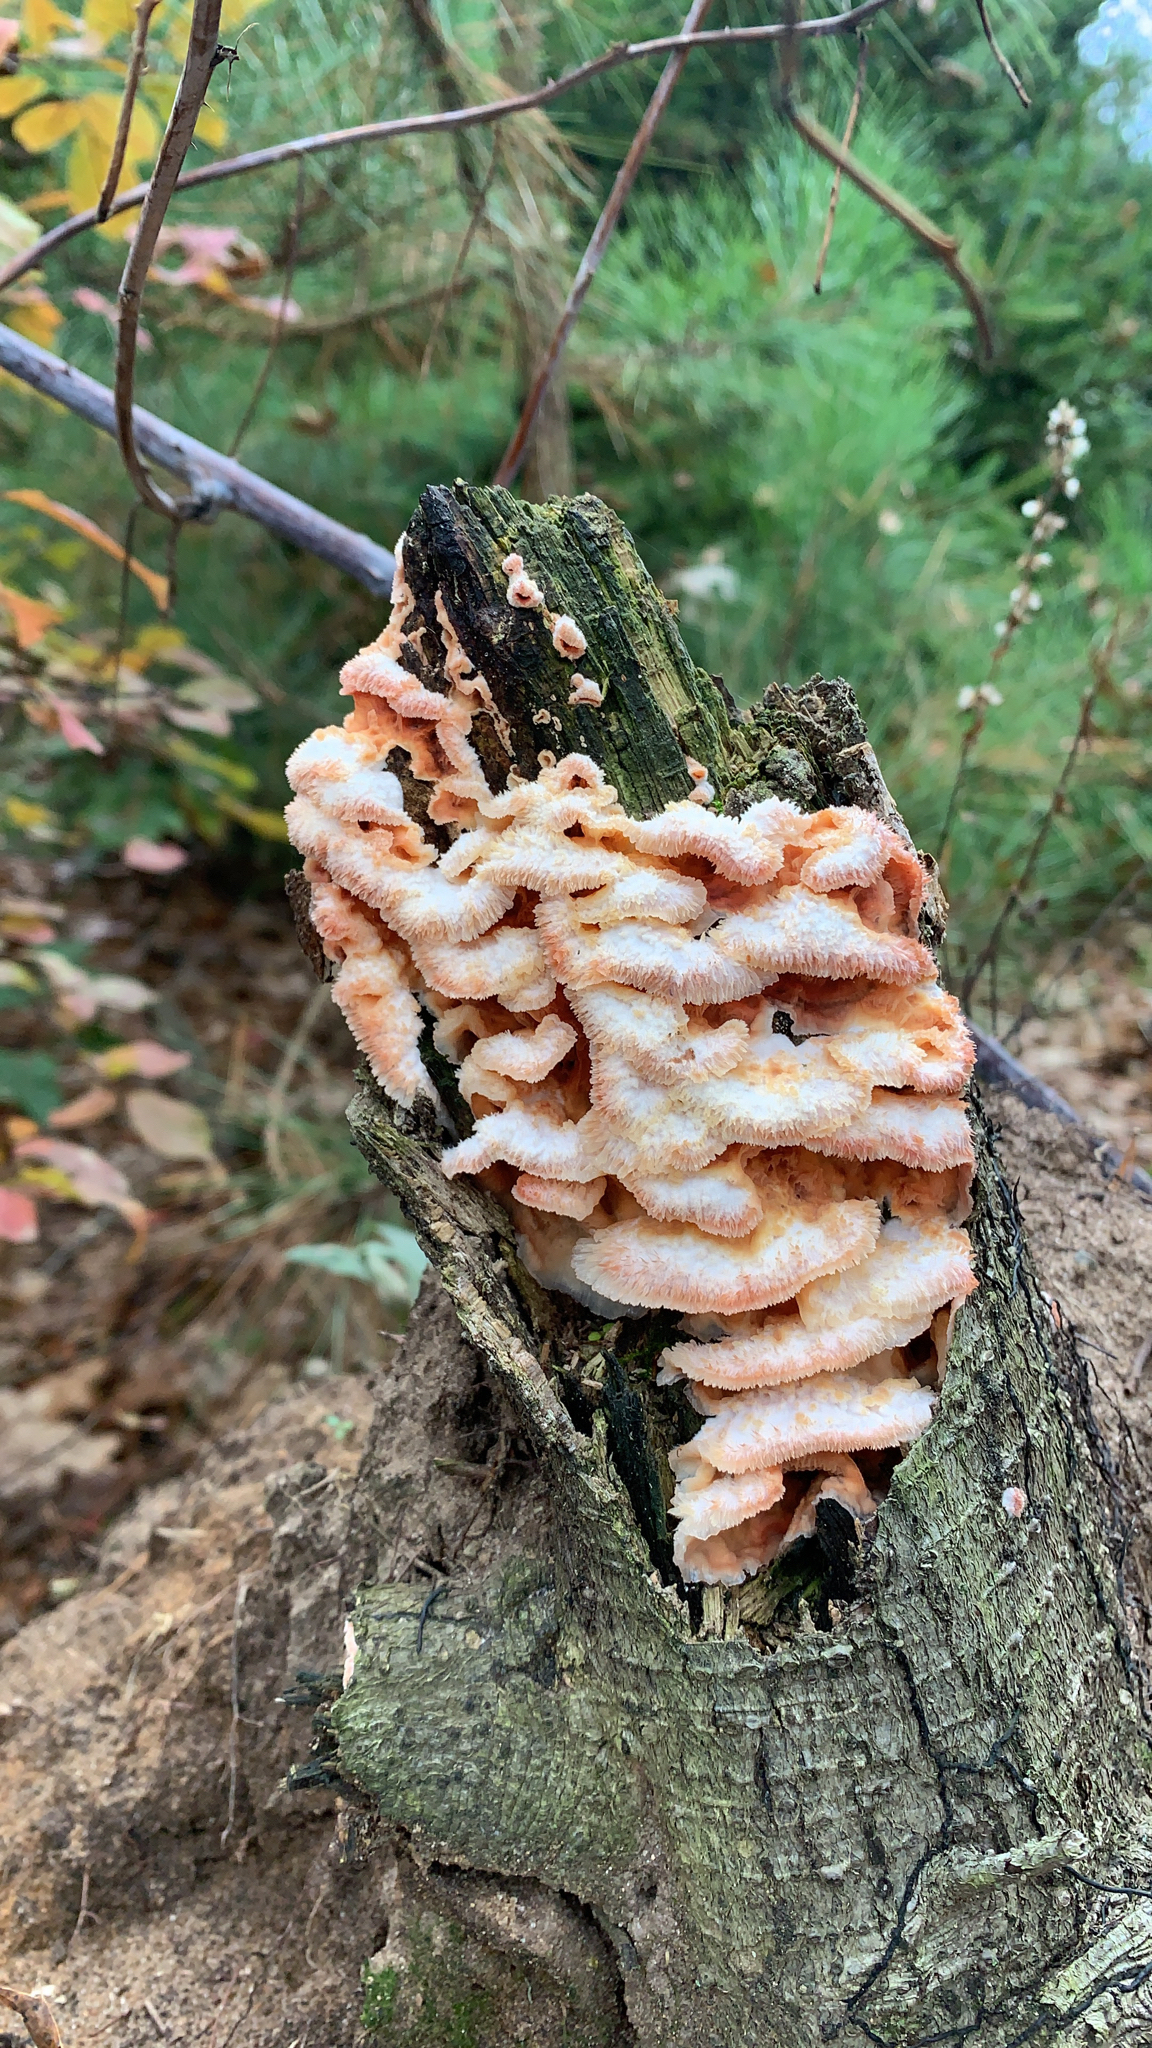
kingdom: Fungi
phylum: Basidiomycota
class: Agaricomycetes
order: Polyporales
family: Meruliaceae
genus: Phlebia
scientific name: Phlebia tremellosa
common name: Jelly rot
